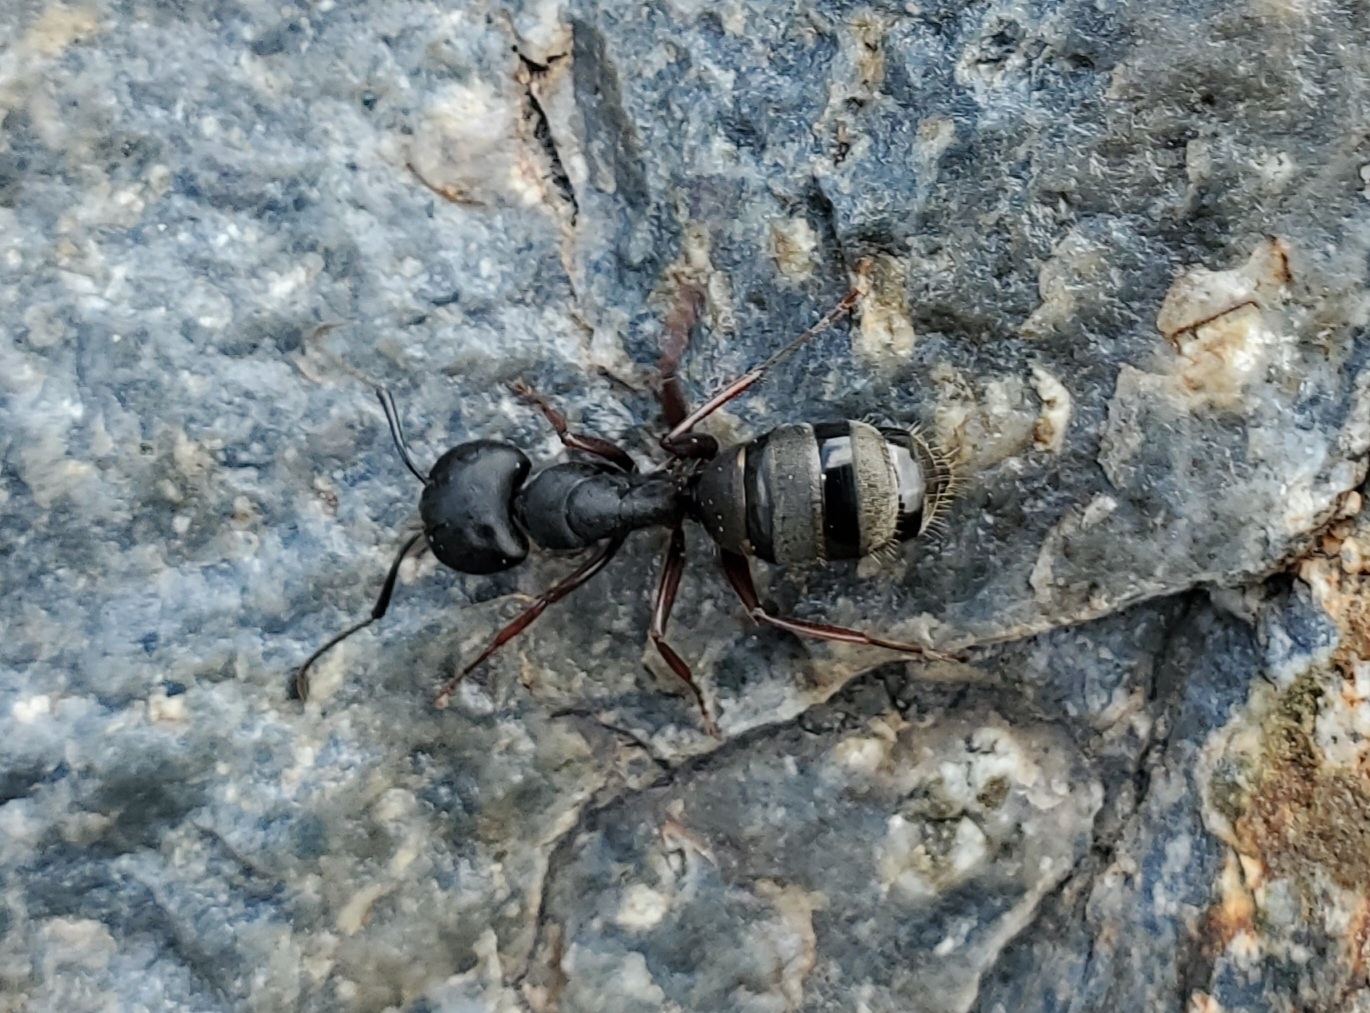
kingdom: Animalia
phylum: Arthropoda
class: Insecta
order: Hymenoptera
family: Formicidae
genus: Camponotus
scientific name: Camponotus modoc
